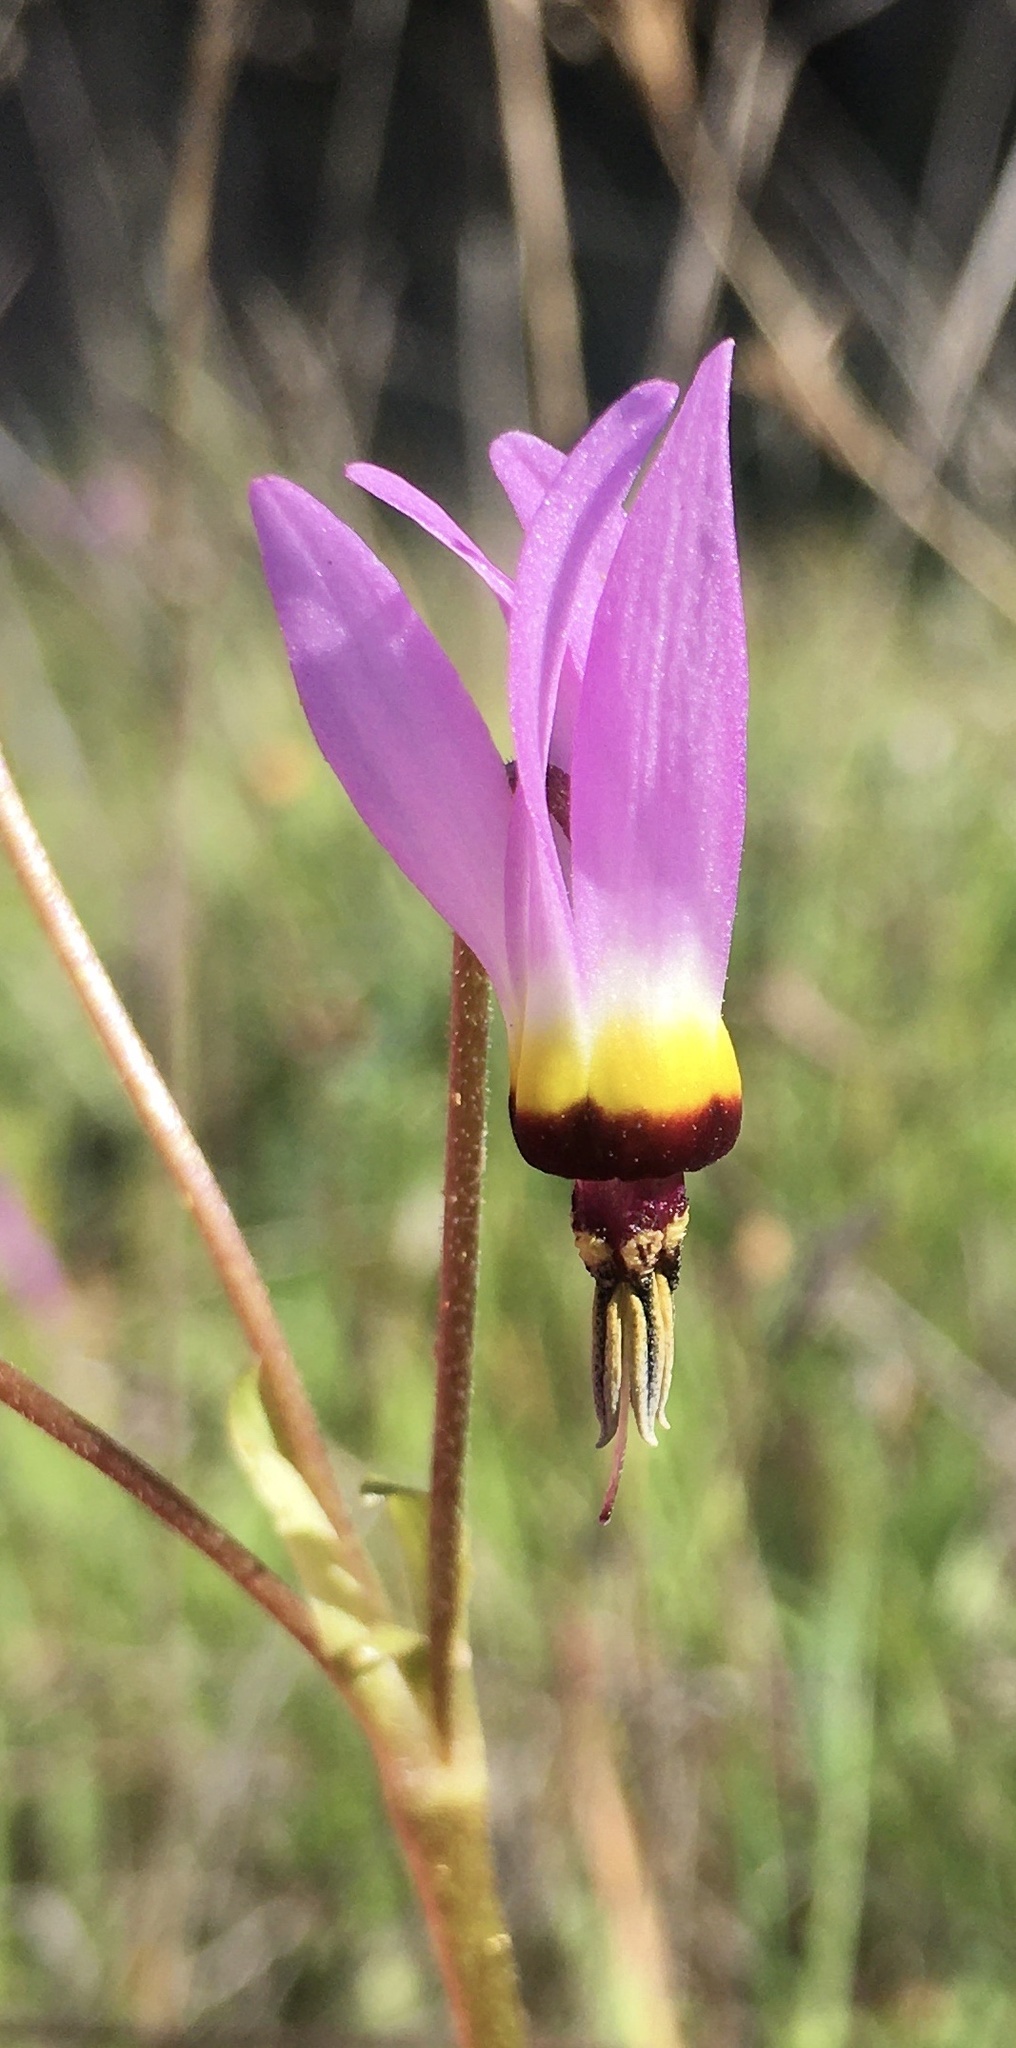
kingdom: Plantae
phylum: Tracheophyta
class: Magnoliopsida
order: Ericales
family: Primulaceae
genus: Dodecatheon
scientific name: Dodecatheon clevelandii
